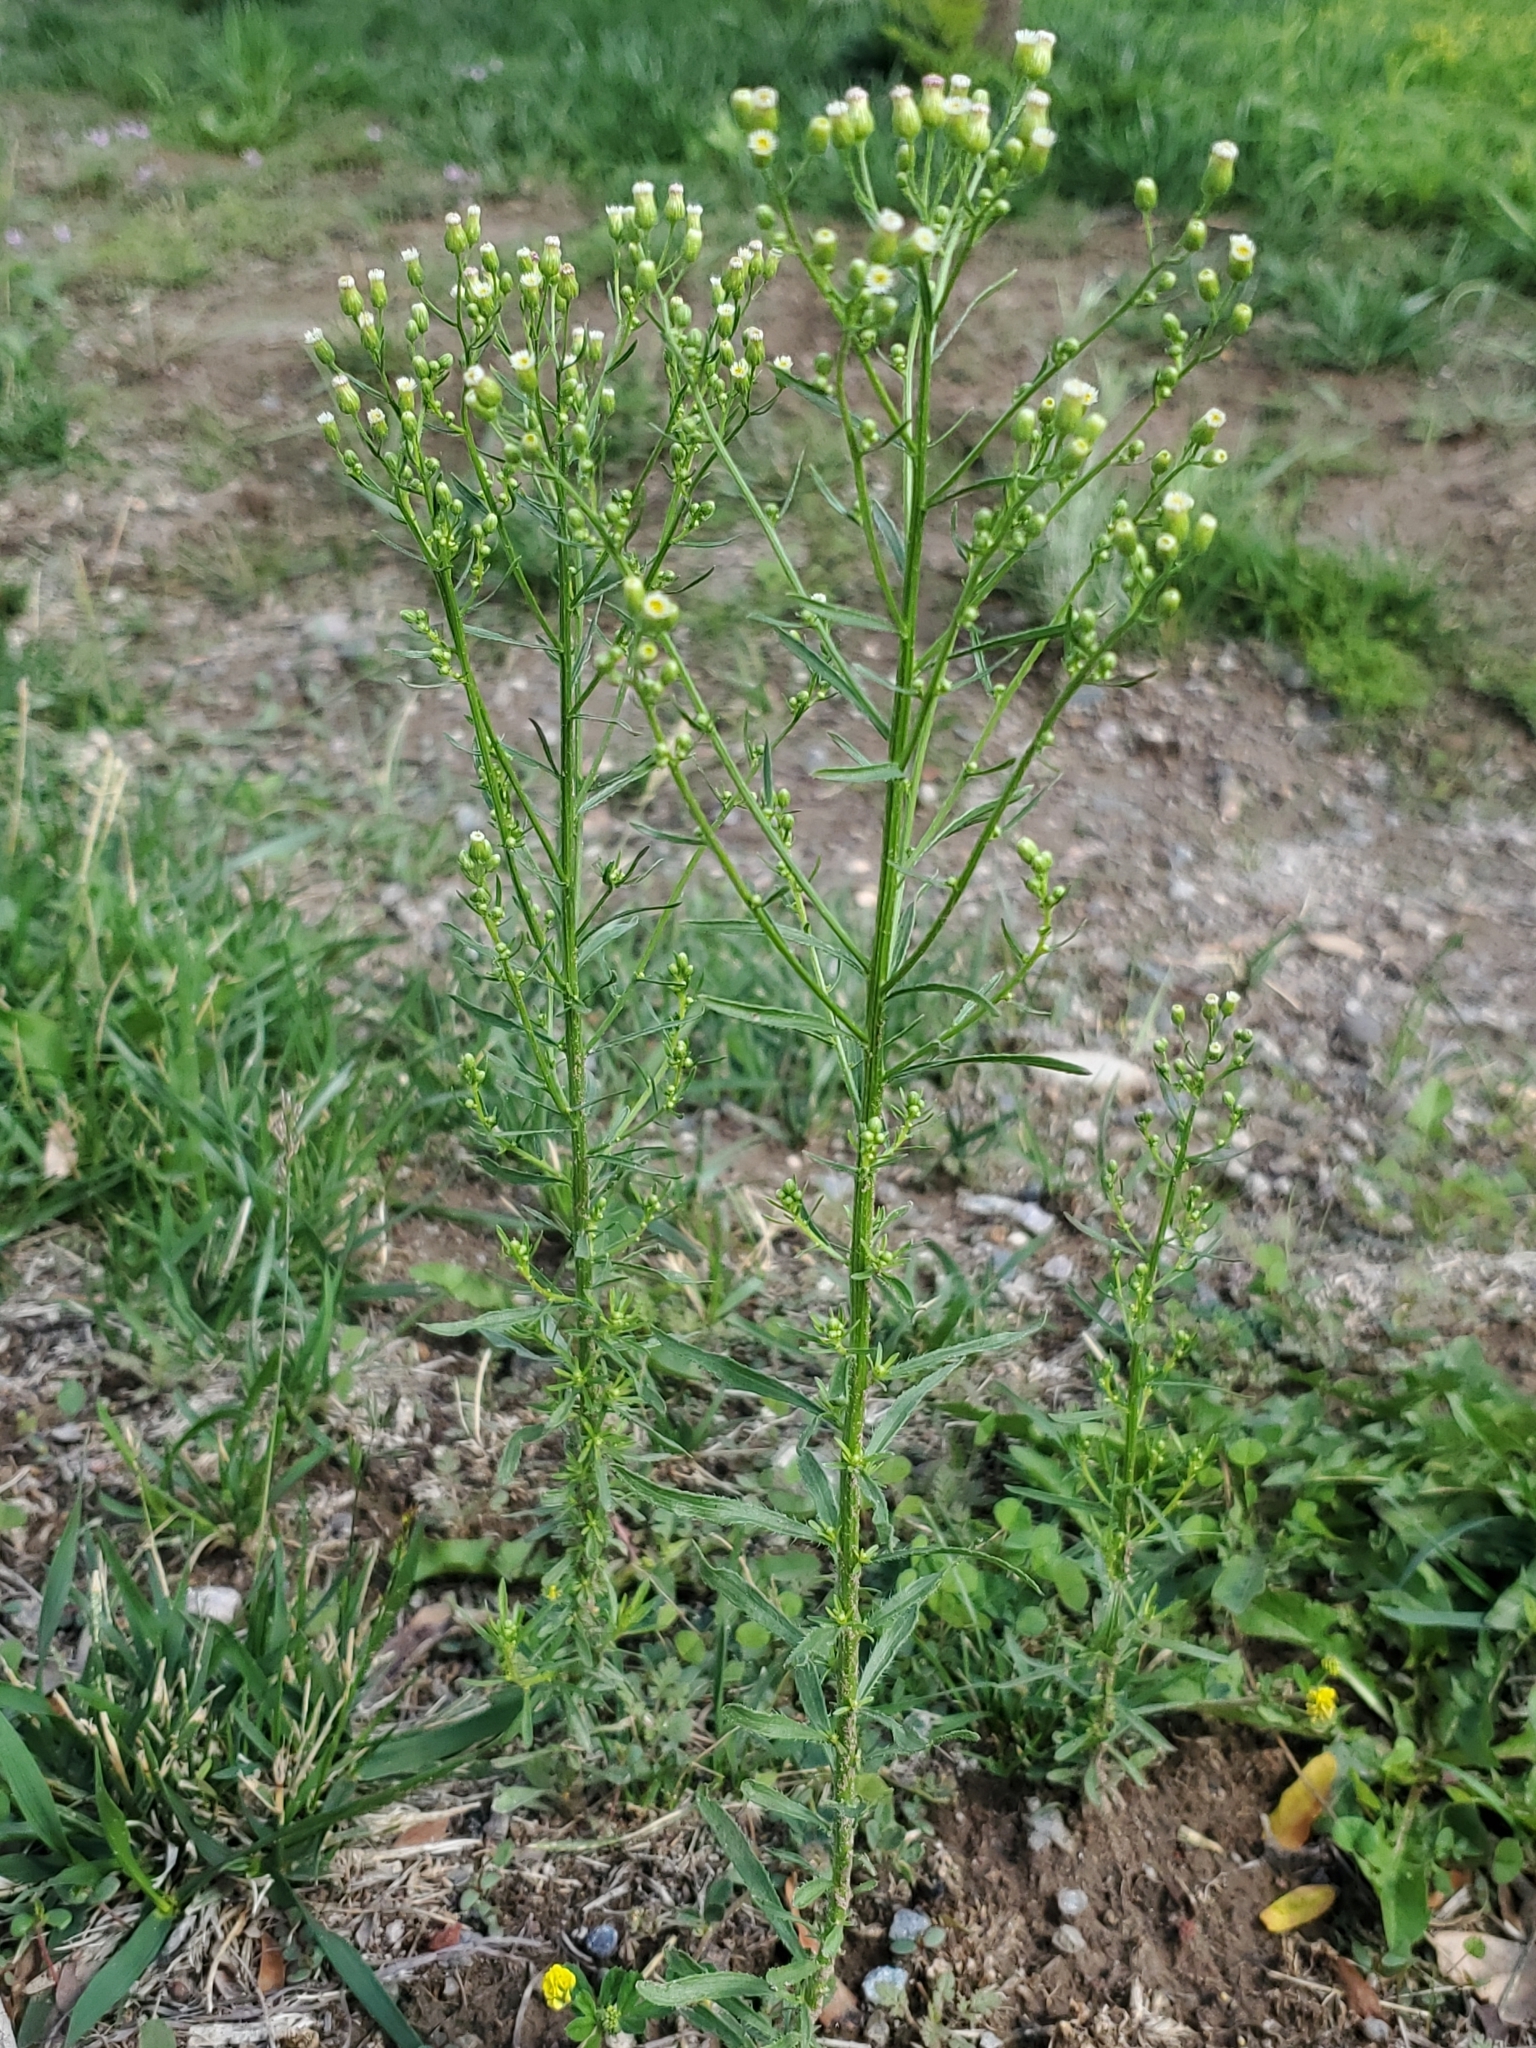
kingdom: Plantae
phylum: Tracheophyta
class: Magnoliopsida
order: Asterales
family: Asteraceae
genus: Erigeron
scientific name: Erigeron canadensis
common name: Canadian fleabane
